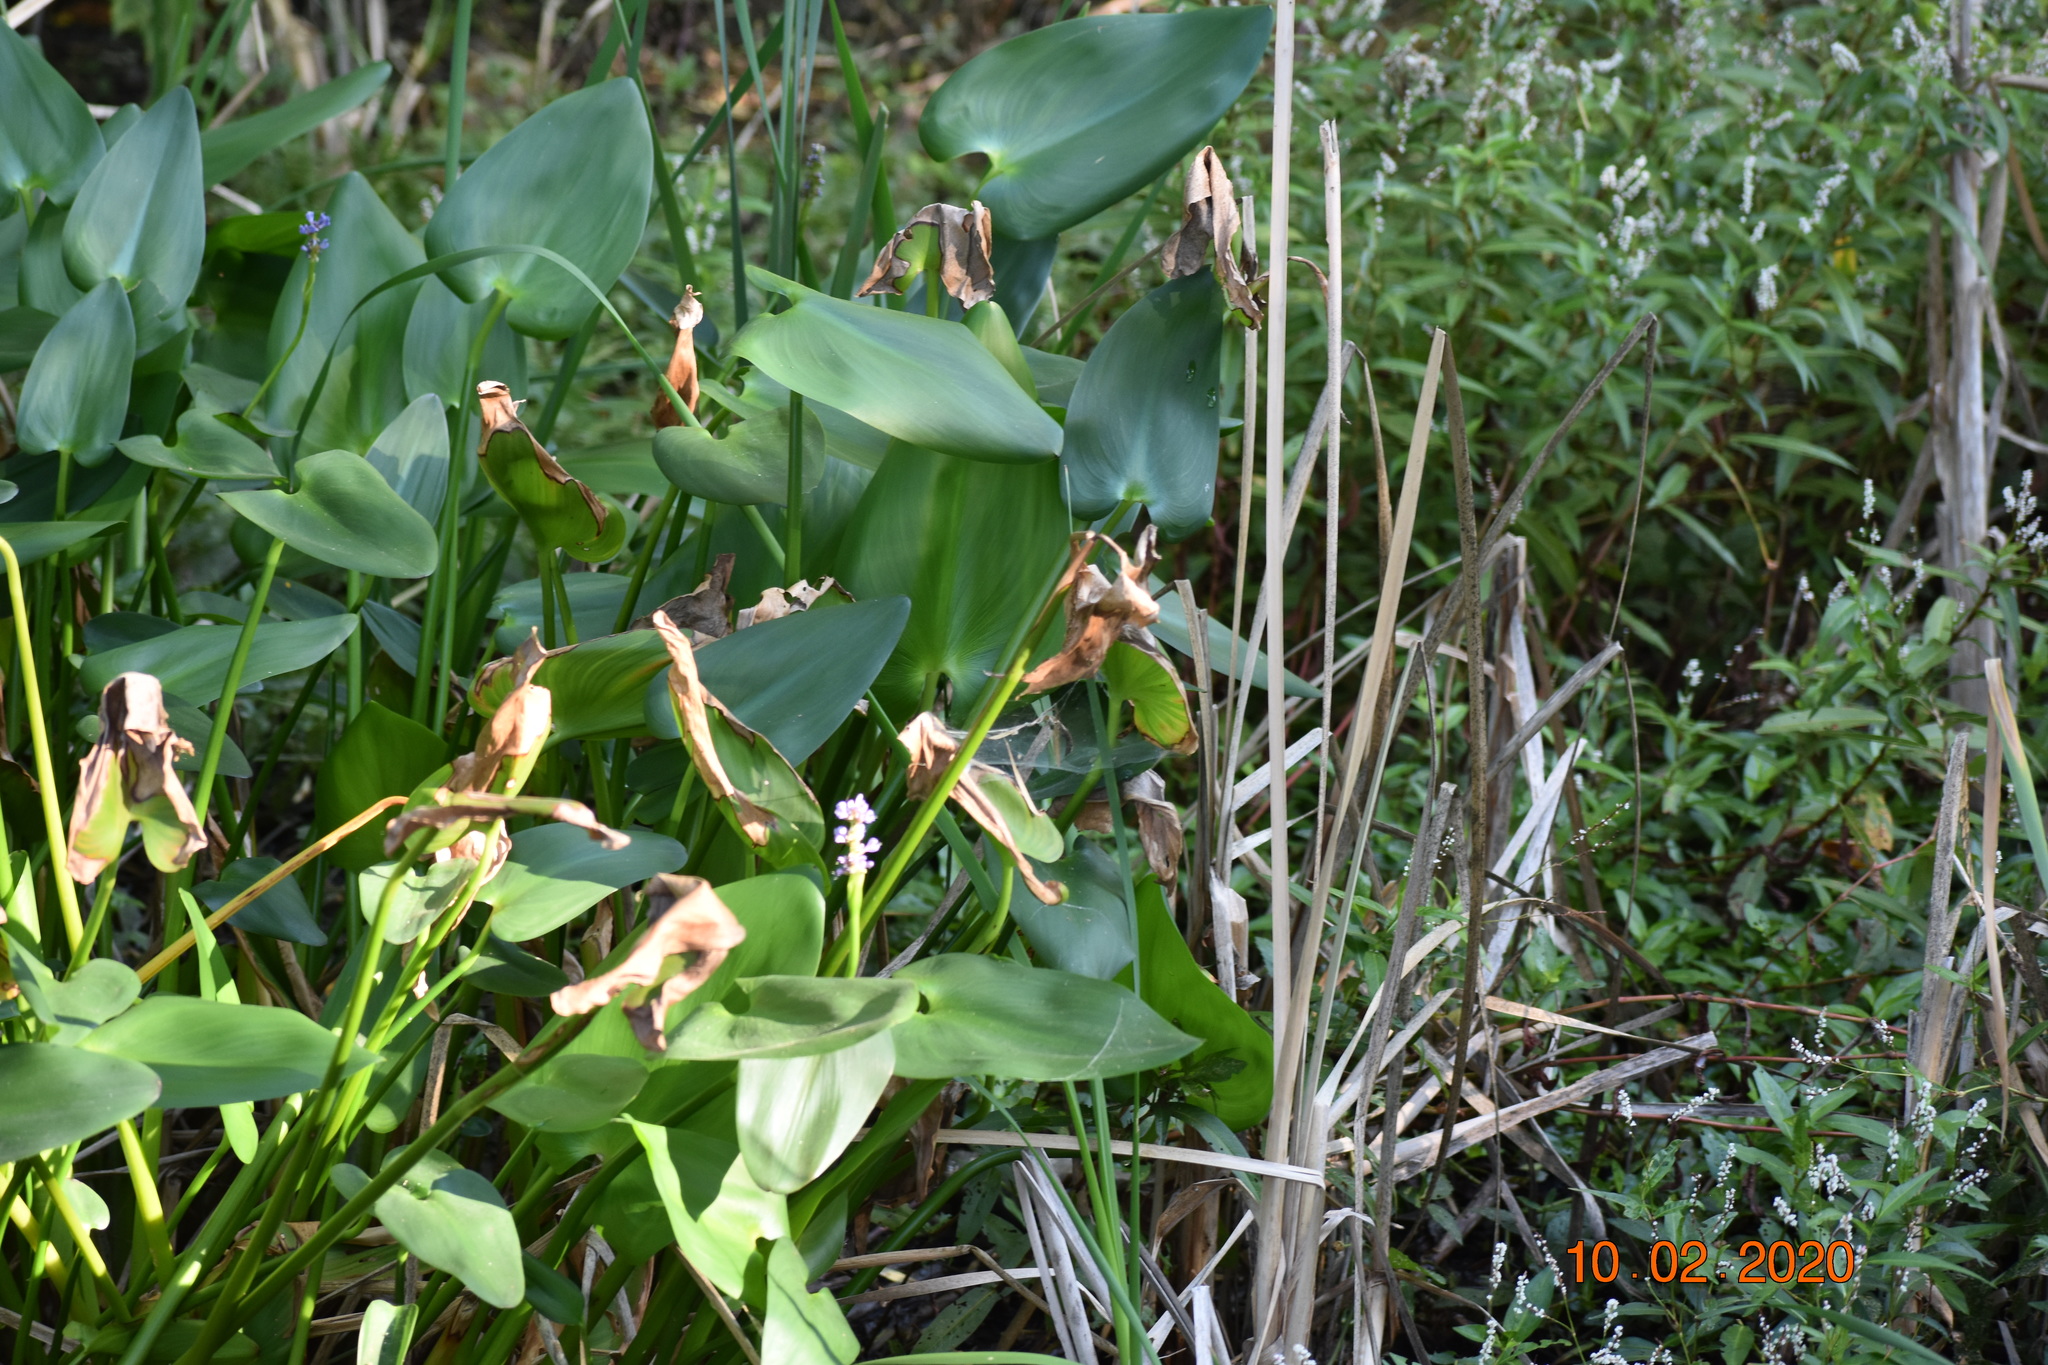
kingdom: Plantae
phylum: Tracheophyta
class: Liliopsida
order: Commelinales
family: Pontederiaceae
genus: Pontederia
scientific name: Pontederia cordata
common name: Pickerelweed
